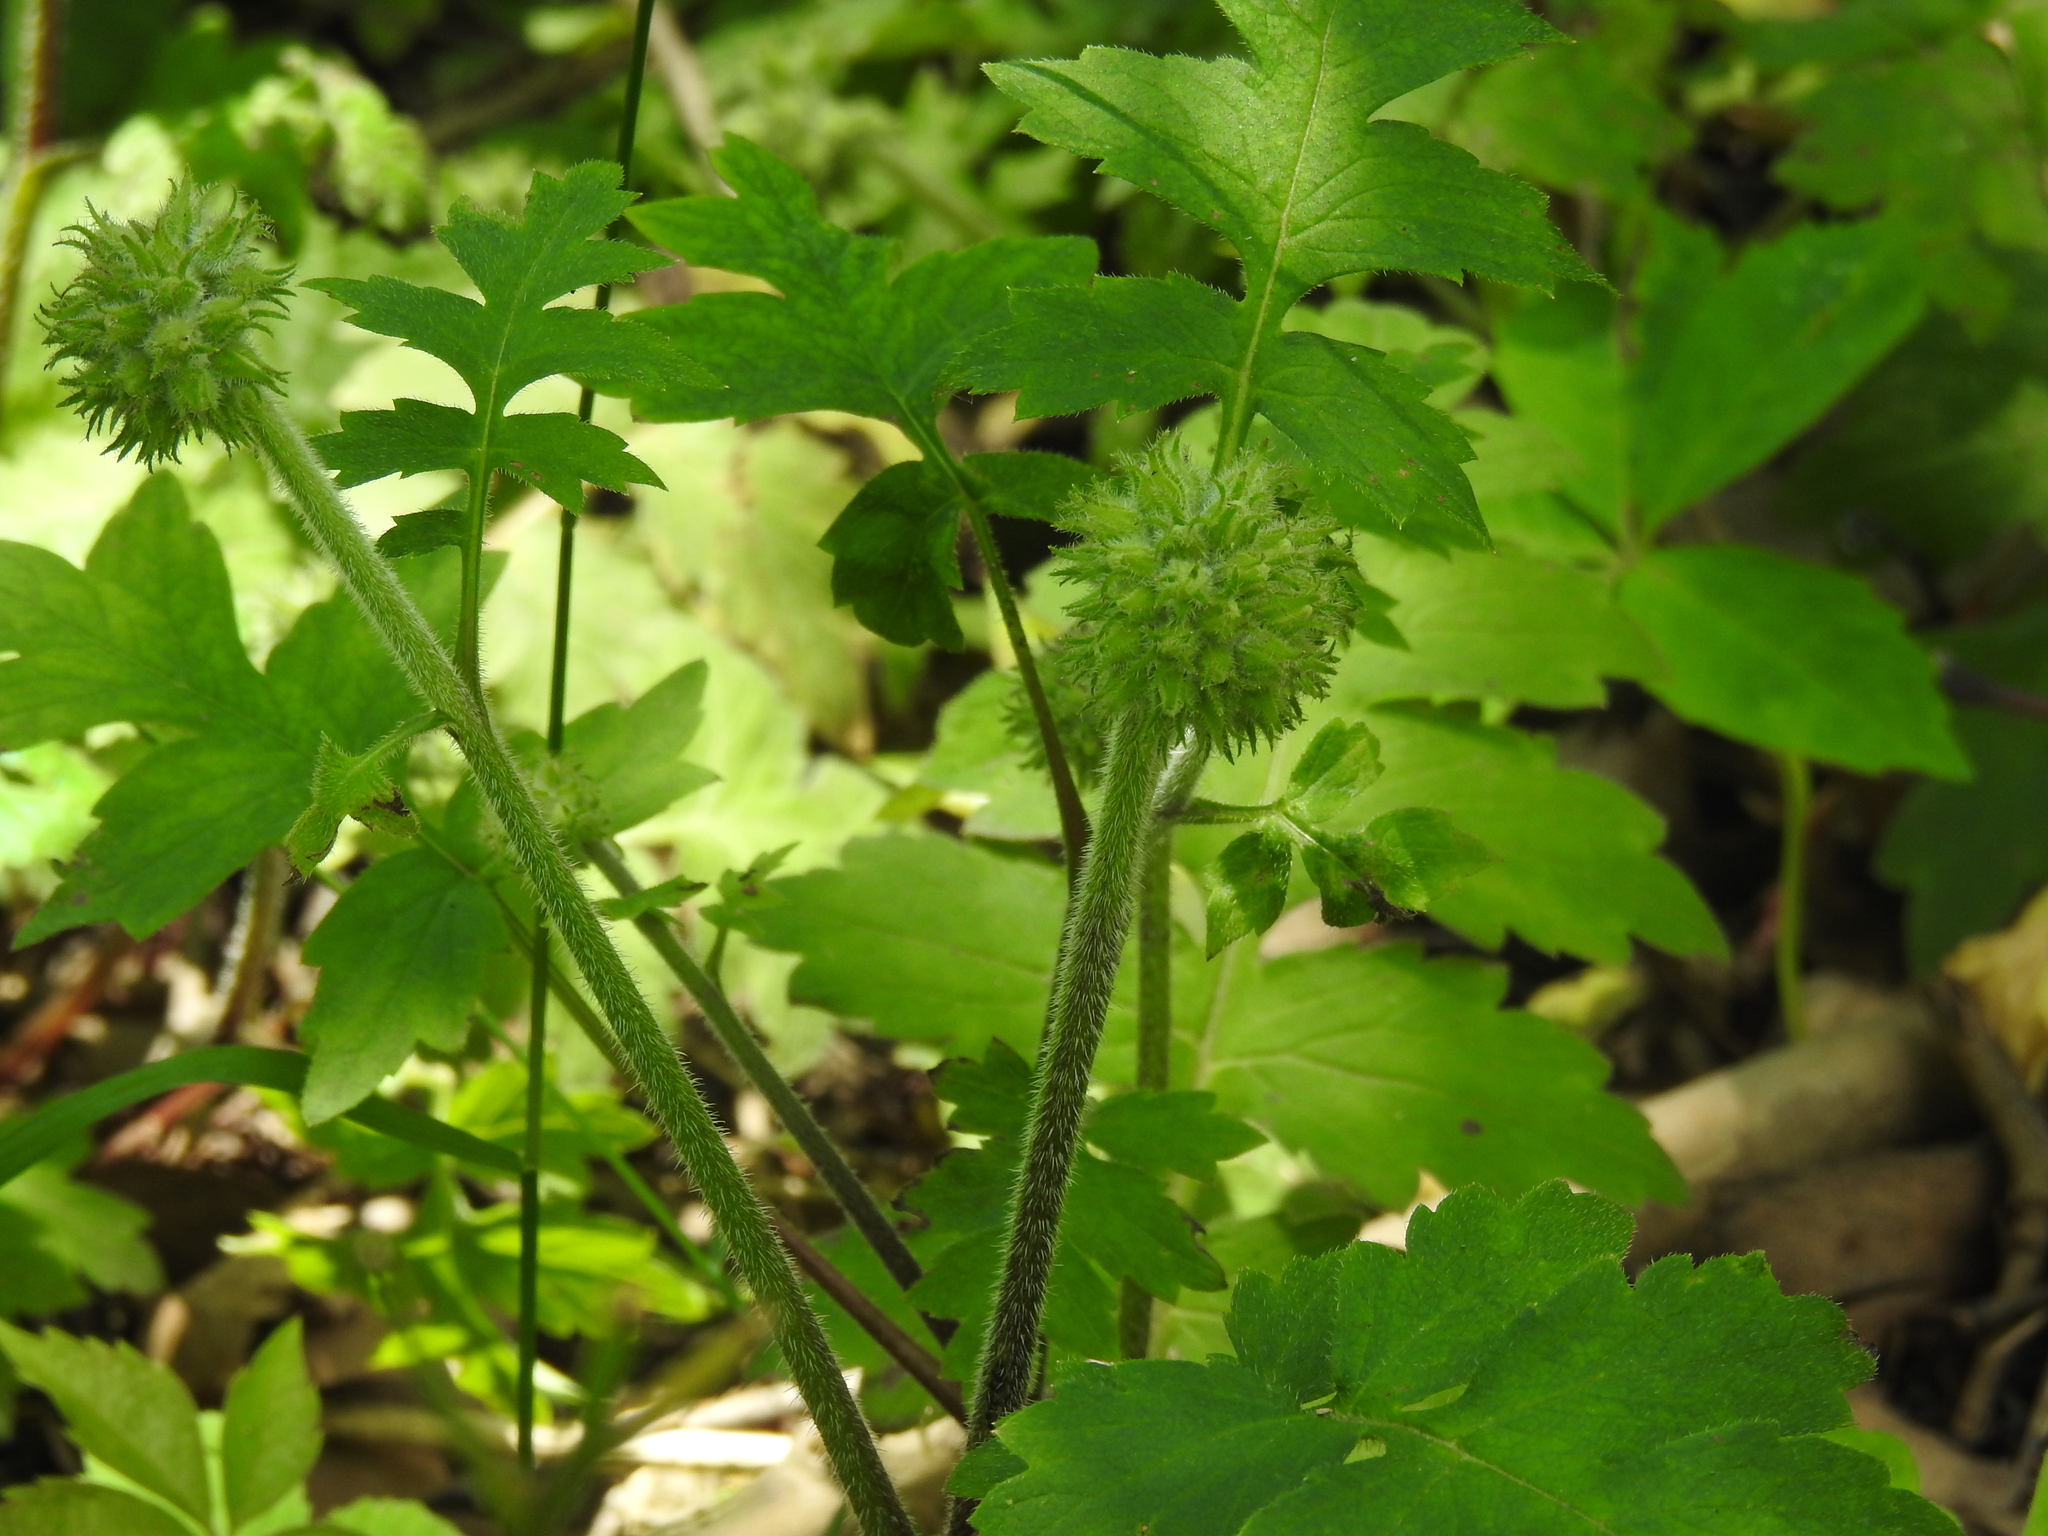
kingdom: Plantae
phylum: Tracheophyta
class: Magnoliopsida
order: Boraginales
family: Hydrophyllaceae
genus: Hydrophyllum
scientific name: Hydrophyllum macrophyllum
